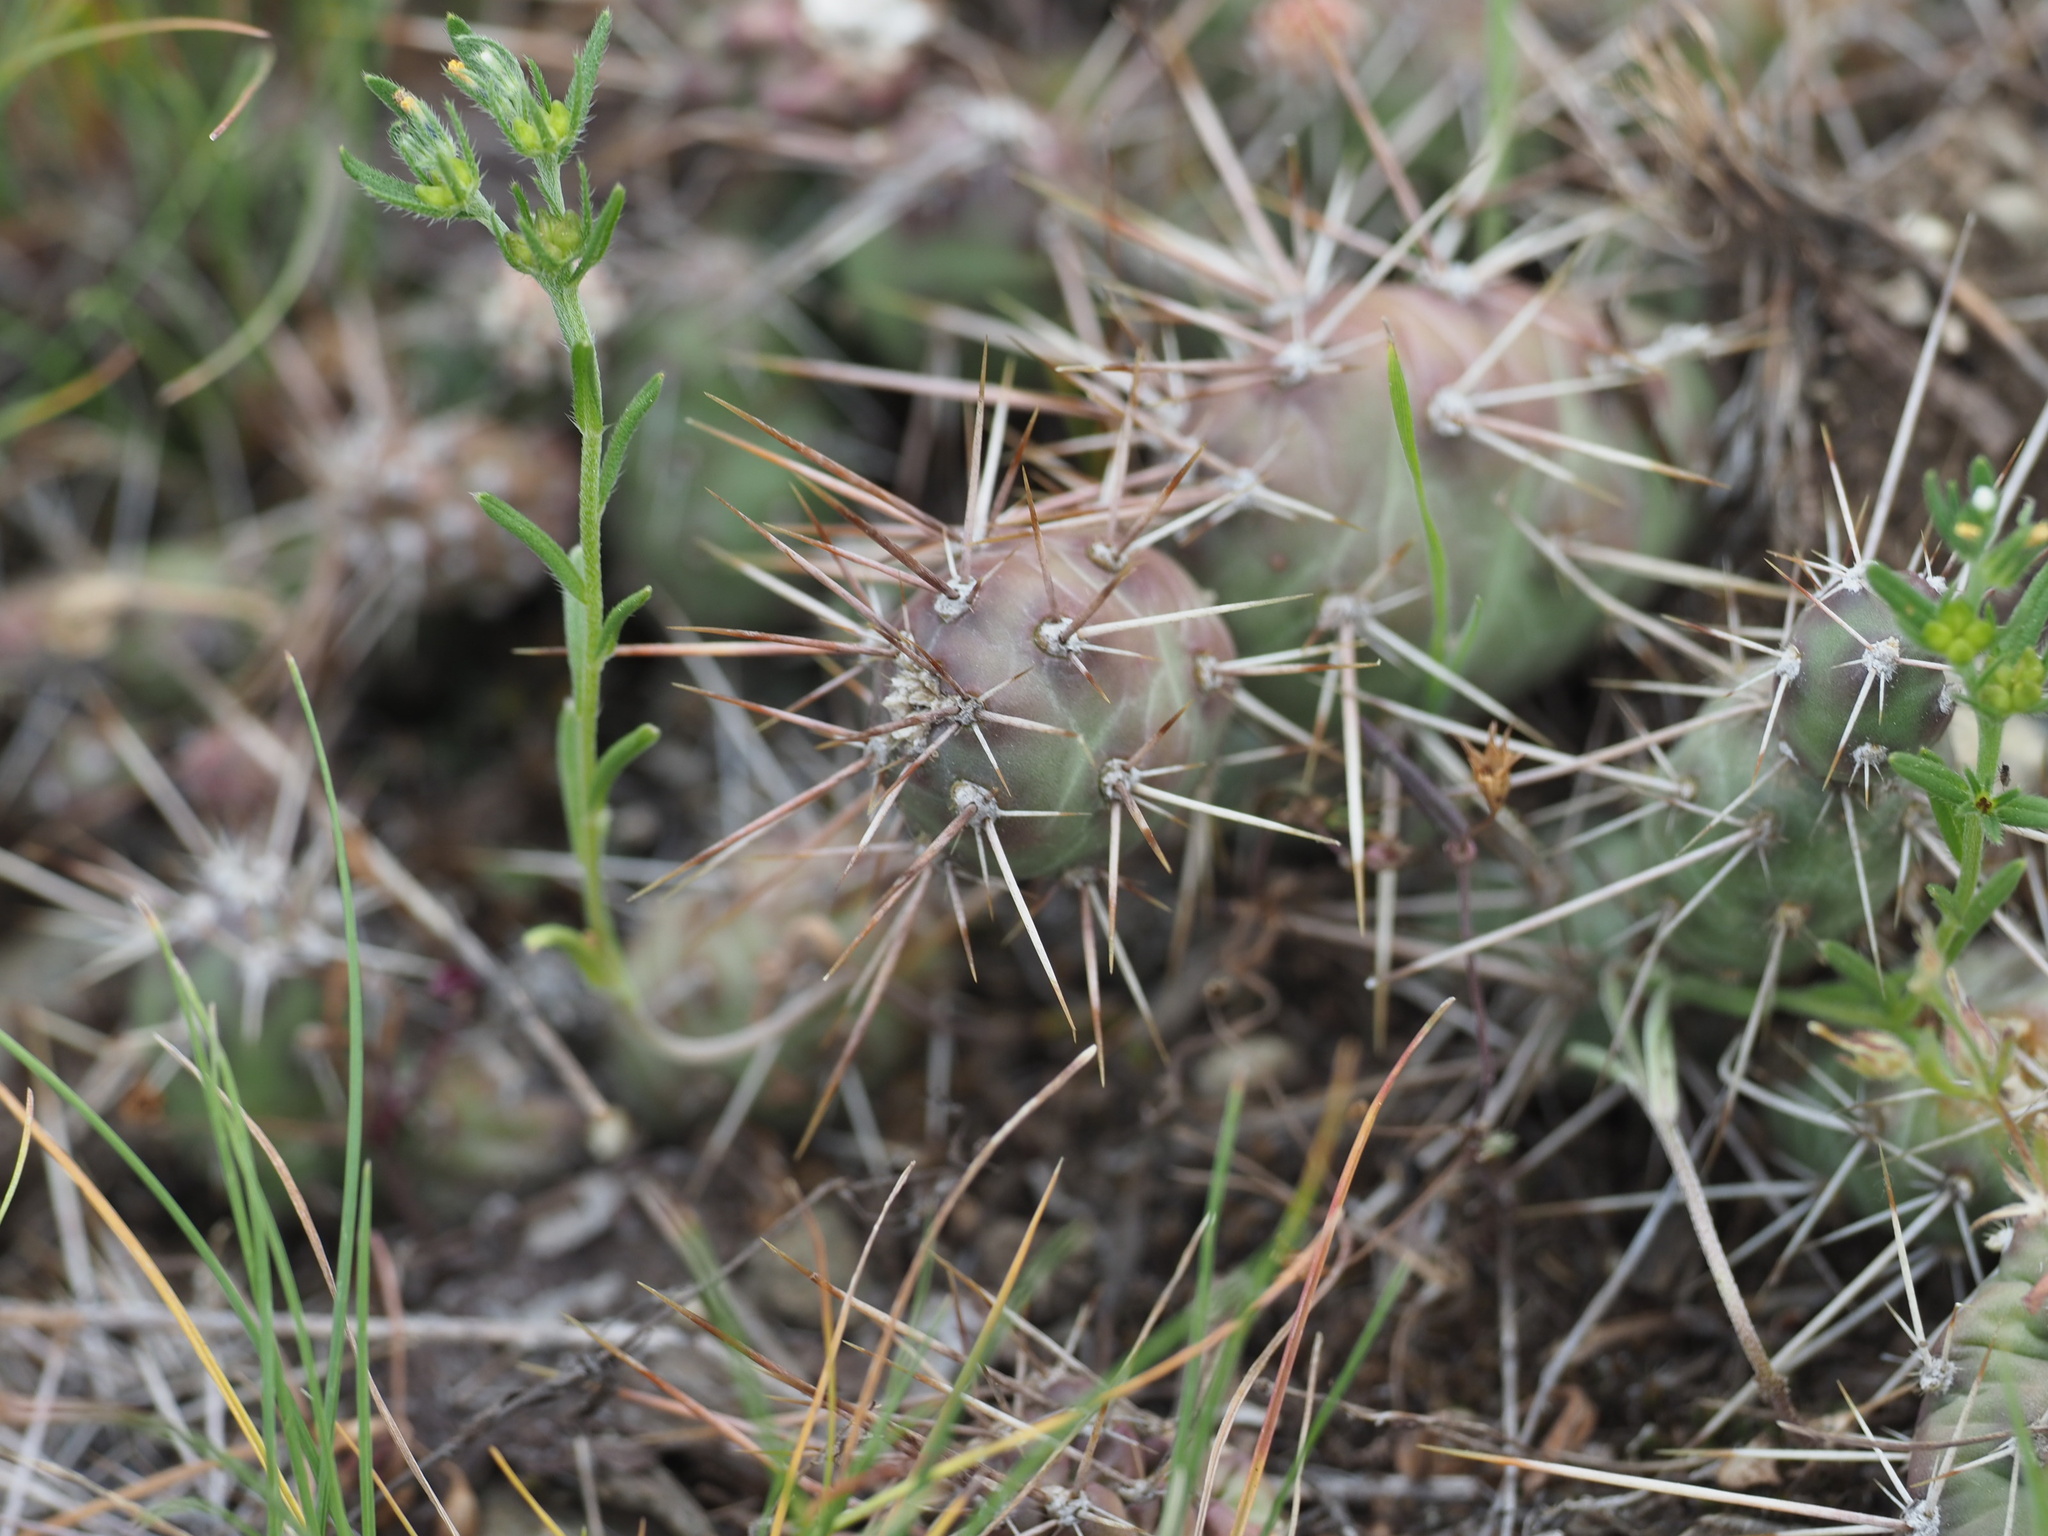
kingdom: Plantae
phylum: Tracheophyta
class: Magnoliopsida
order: Caryophyllales
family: Cactaceae
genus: Opuntia
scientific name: Opuntia fragilis
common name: Brittle cactus
